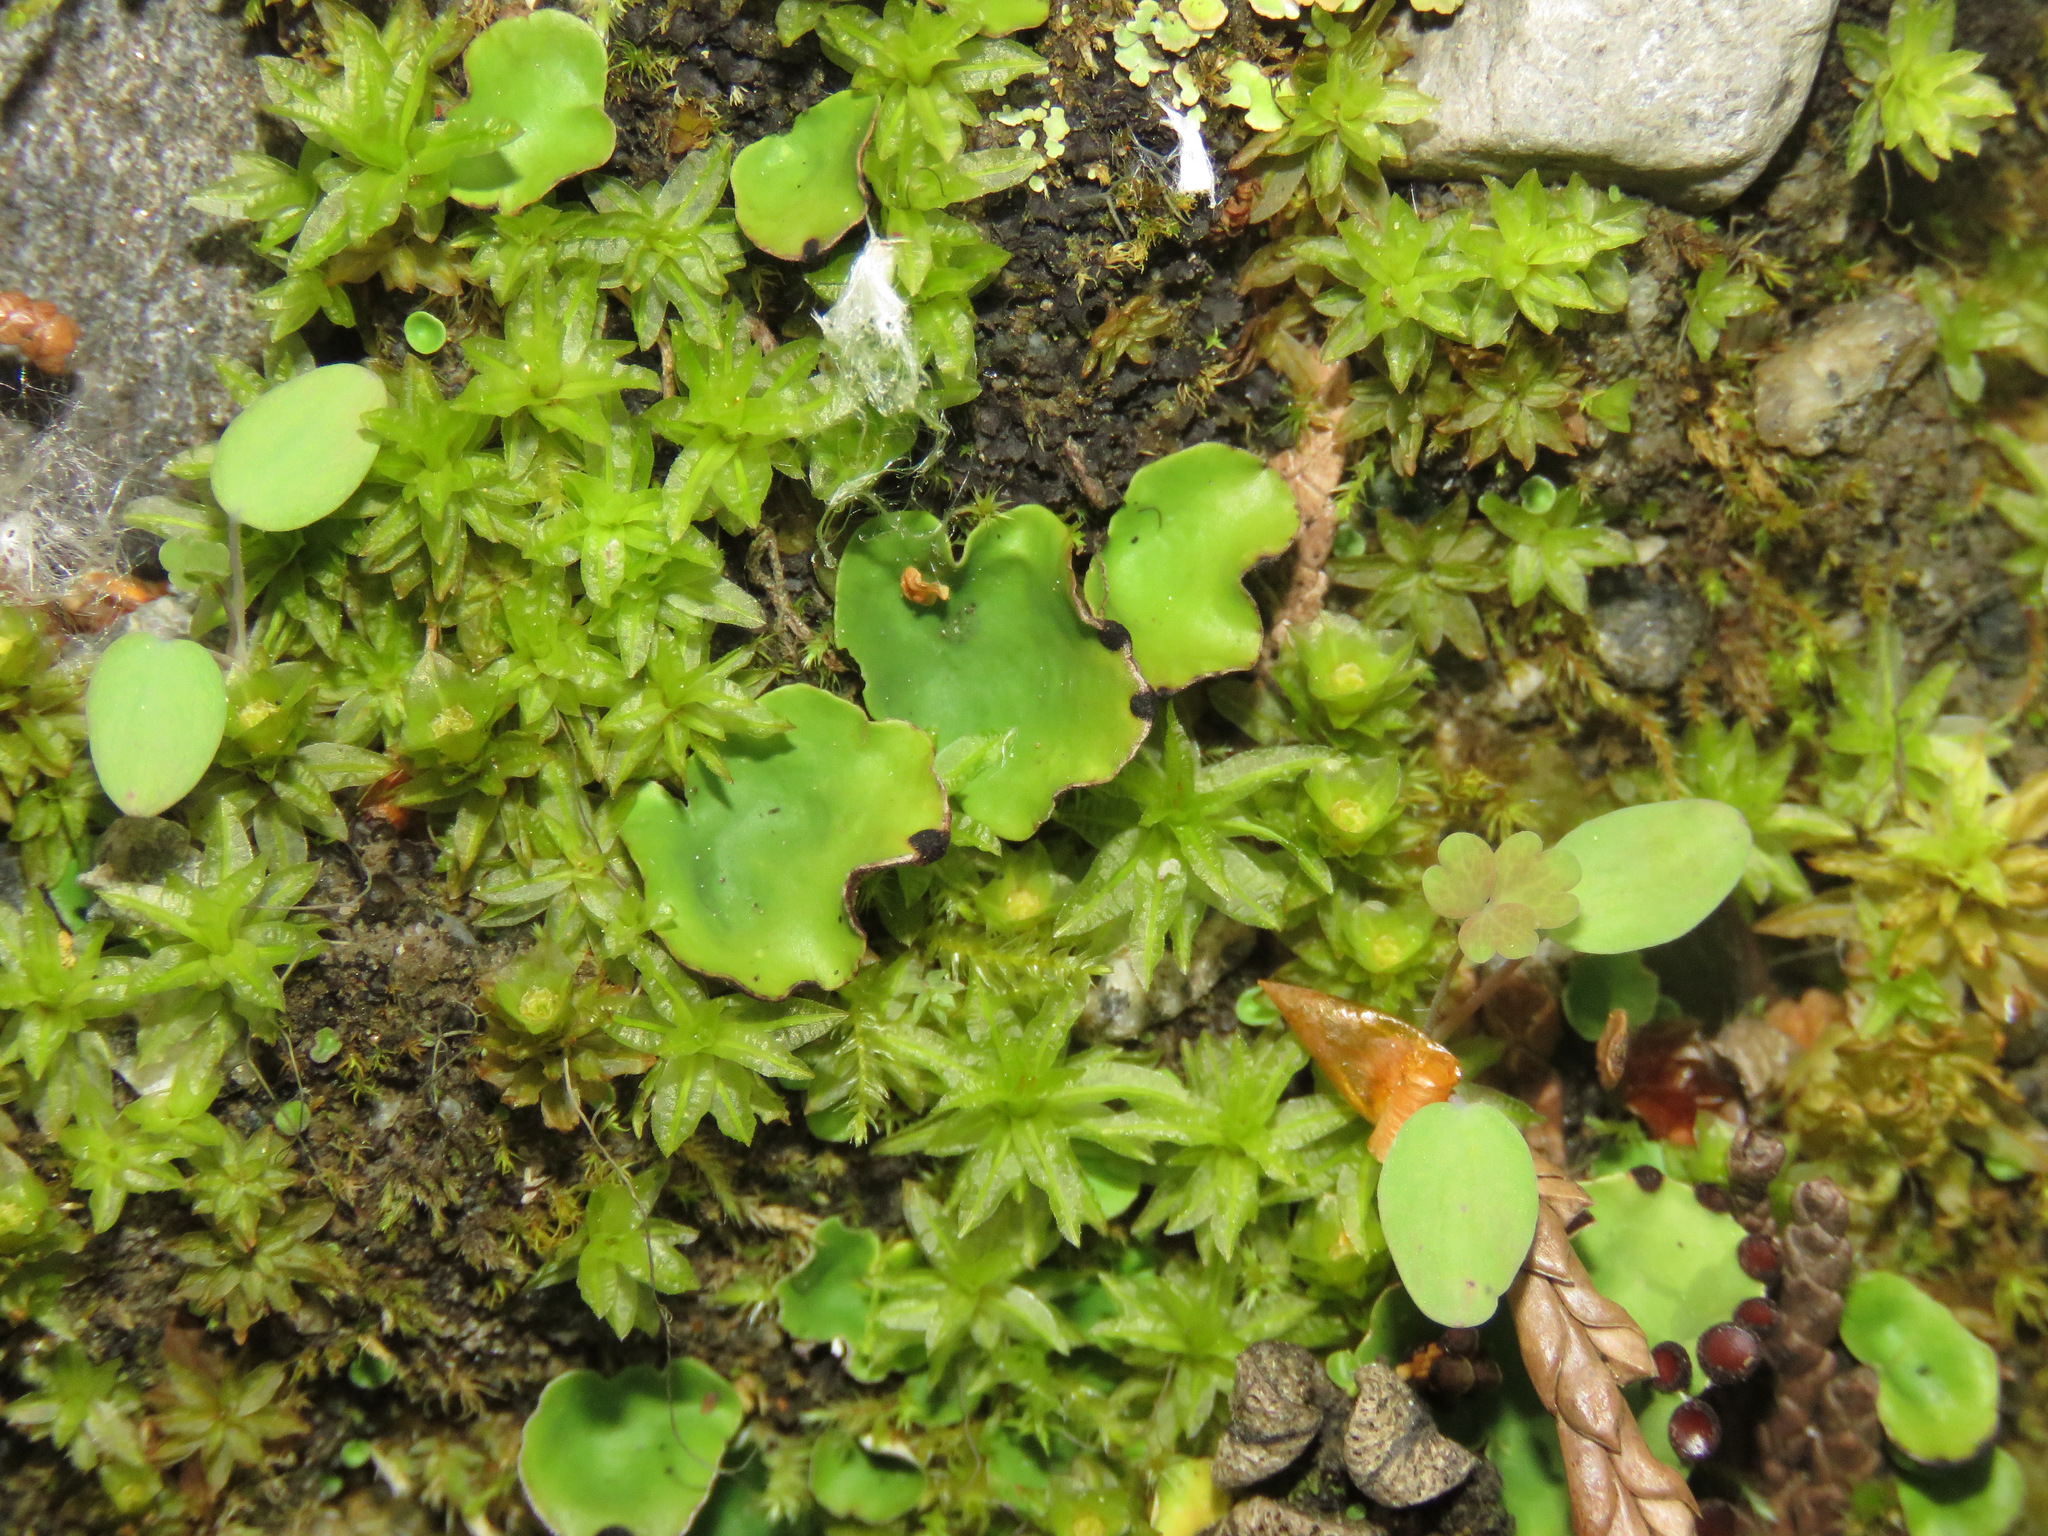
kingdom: Fungi
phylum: Ascomycota
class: Lecanoromycetes
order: Peltigerales
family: Peltigeraceae
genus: Peltigera
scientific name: Peltigera venosa
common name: Pixie gowns lichen
